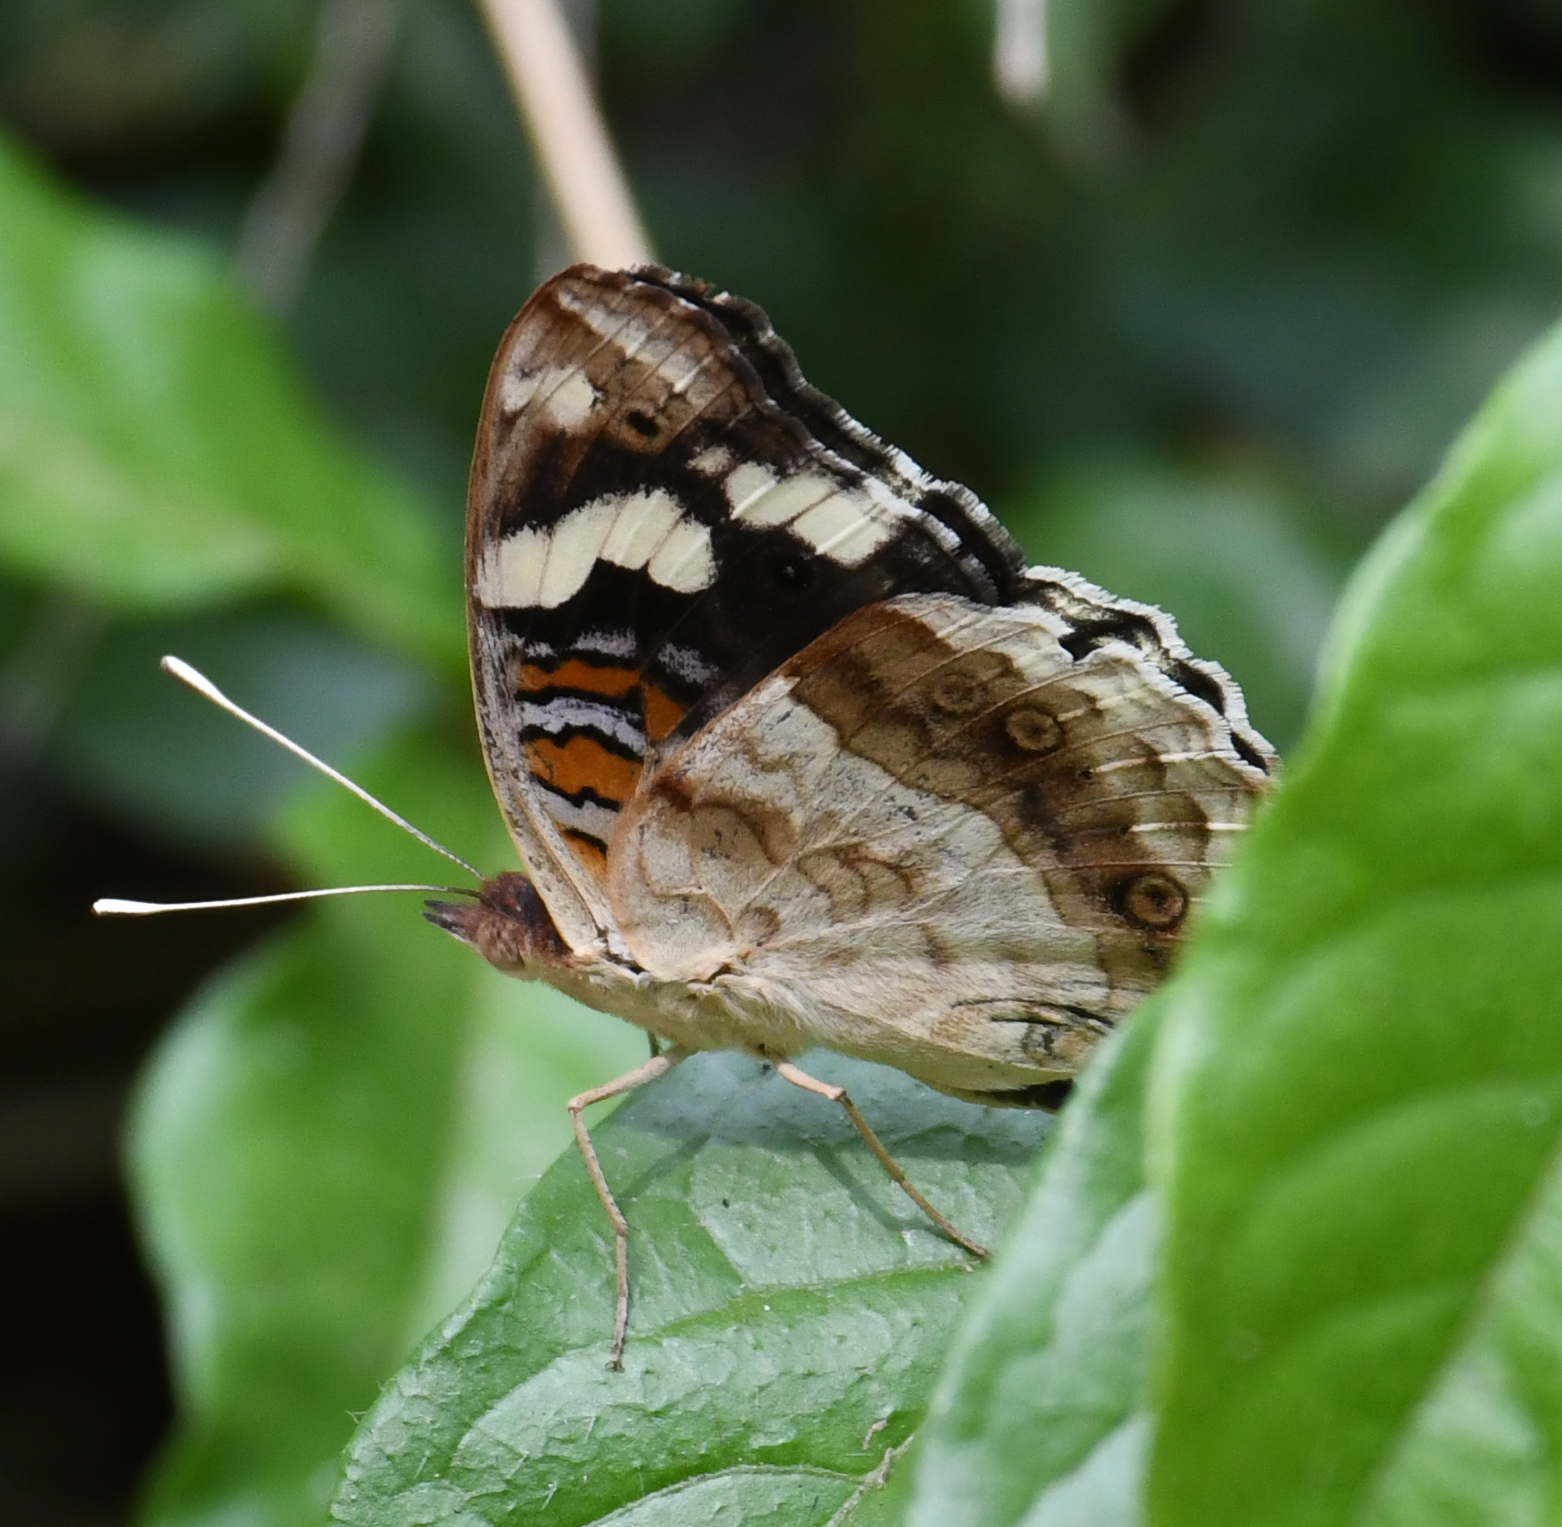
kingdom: Animalia
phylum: Arthropoda
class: Insecta
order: Lepidoptera
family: Nymphalidae
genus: Junonia
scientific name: Junonia oenone
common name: Dark blue pansy
